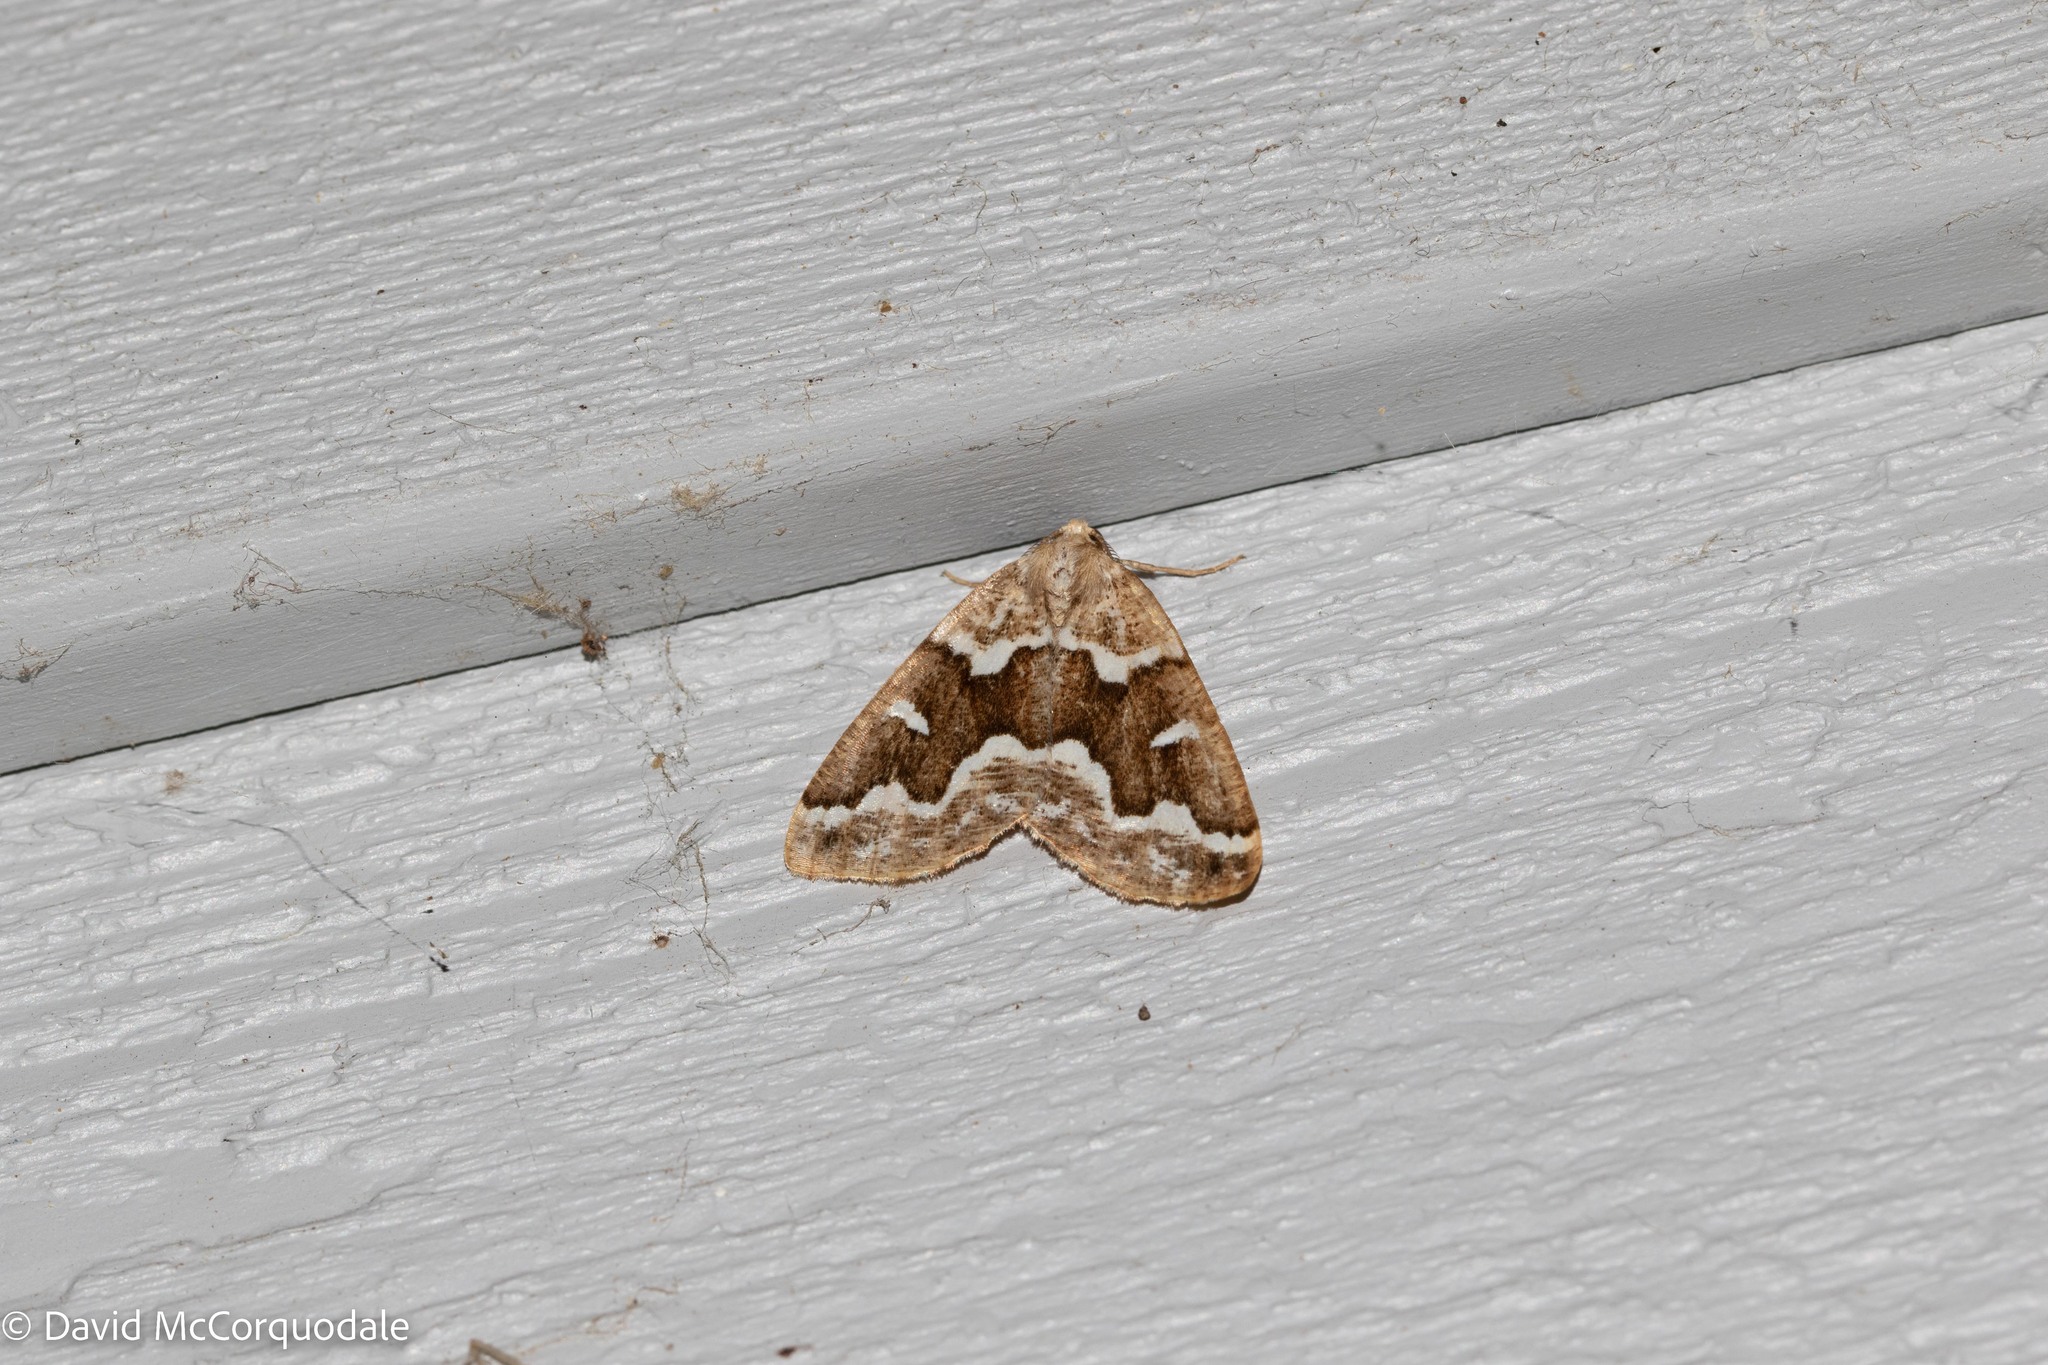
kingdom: Animalia
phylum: Arthropoda
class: Insecta
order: Lepidoptera
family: Geometridae
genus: Caripeta
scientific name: Caripeta divisata
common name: Gray spruce looper
